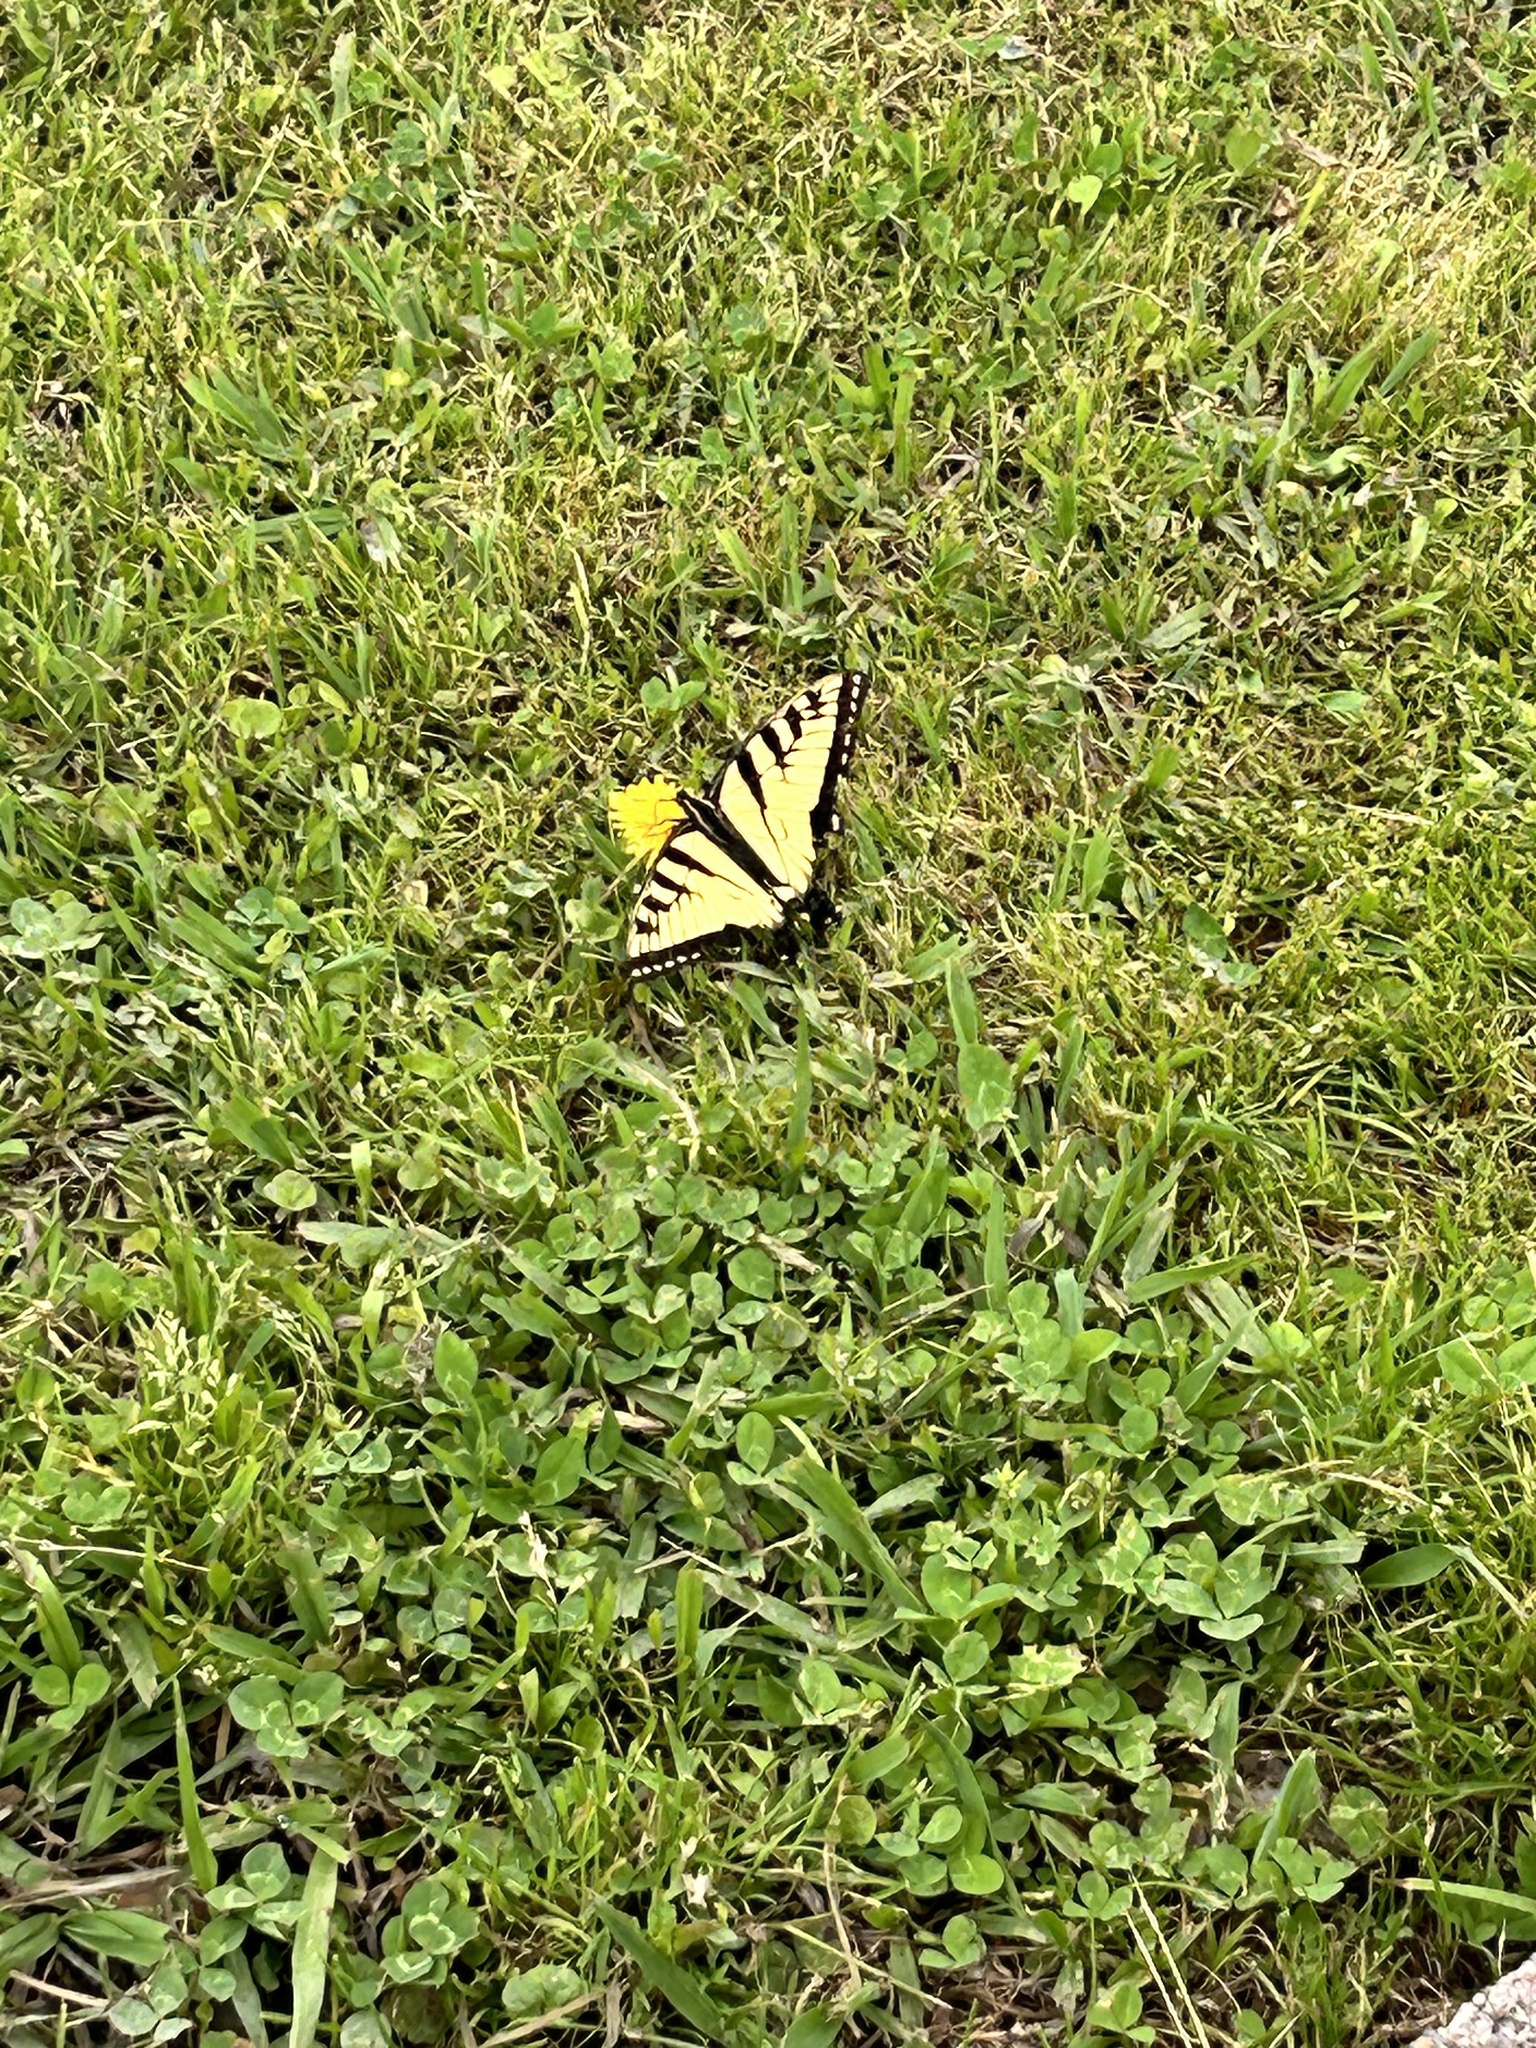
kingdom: Animalia
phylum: Arthropoda
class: Insecta
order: Lepidoptera
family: Papilionidae
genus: Papilio
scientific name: Papilio glaucus
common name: Tiger swallowtail
